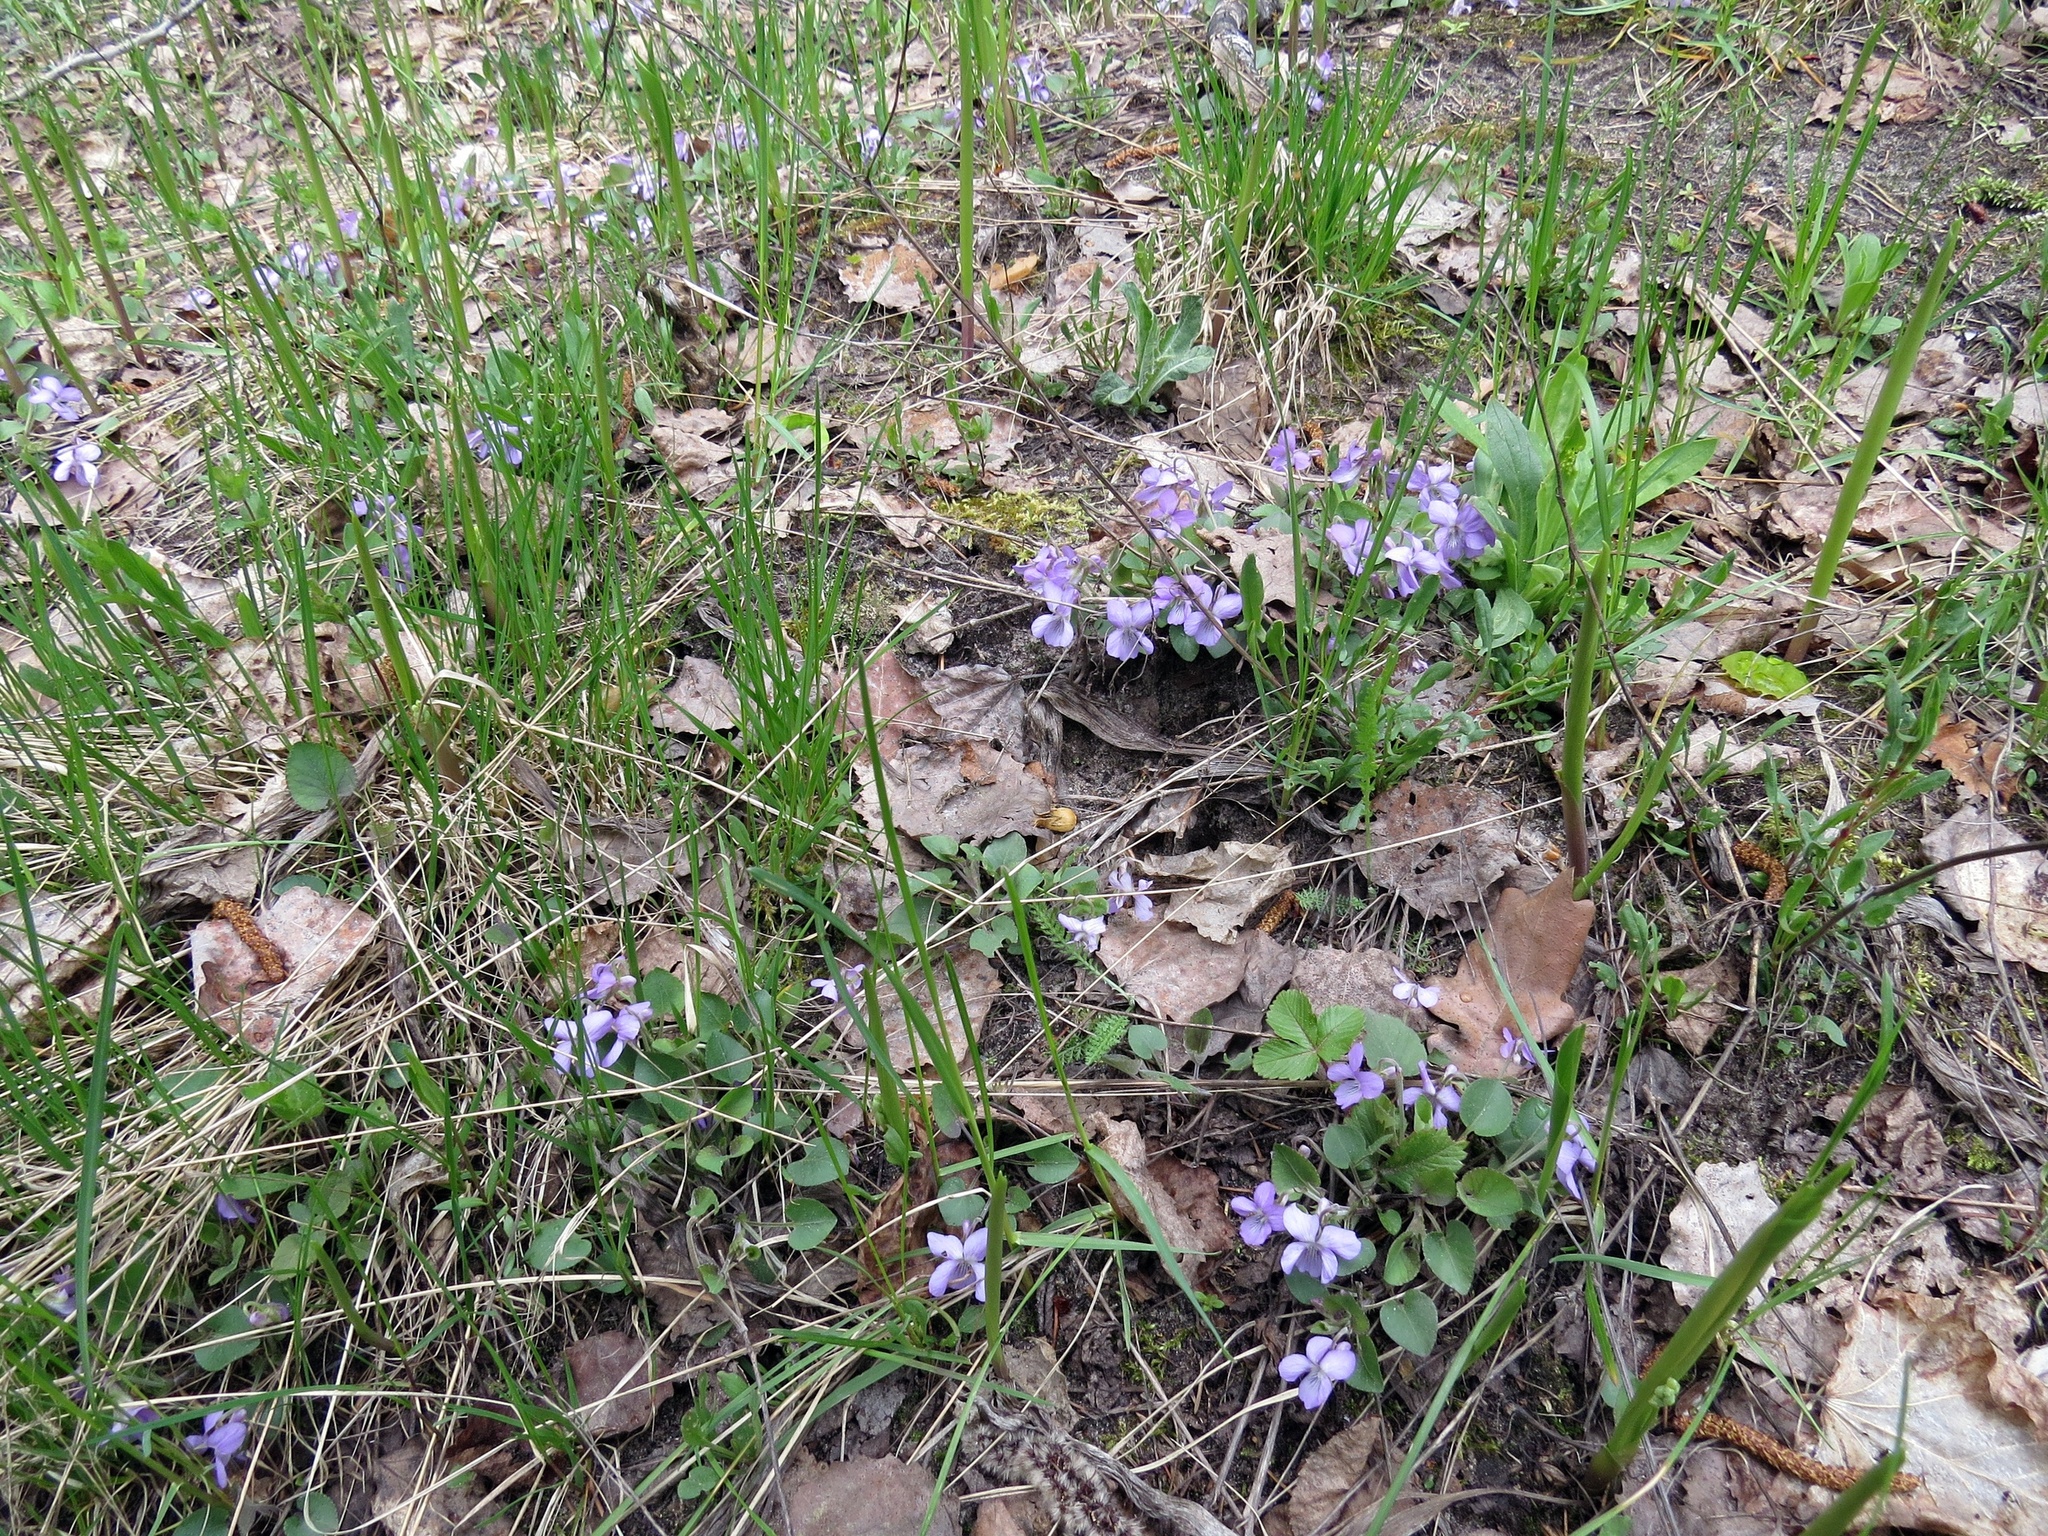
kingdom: Plantae
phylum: Tracheophyta
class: Magnoliopsida
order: Malpighiales
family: Violaceae
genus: Viola
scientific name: Viola rupestris
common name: Teesdale violet
